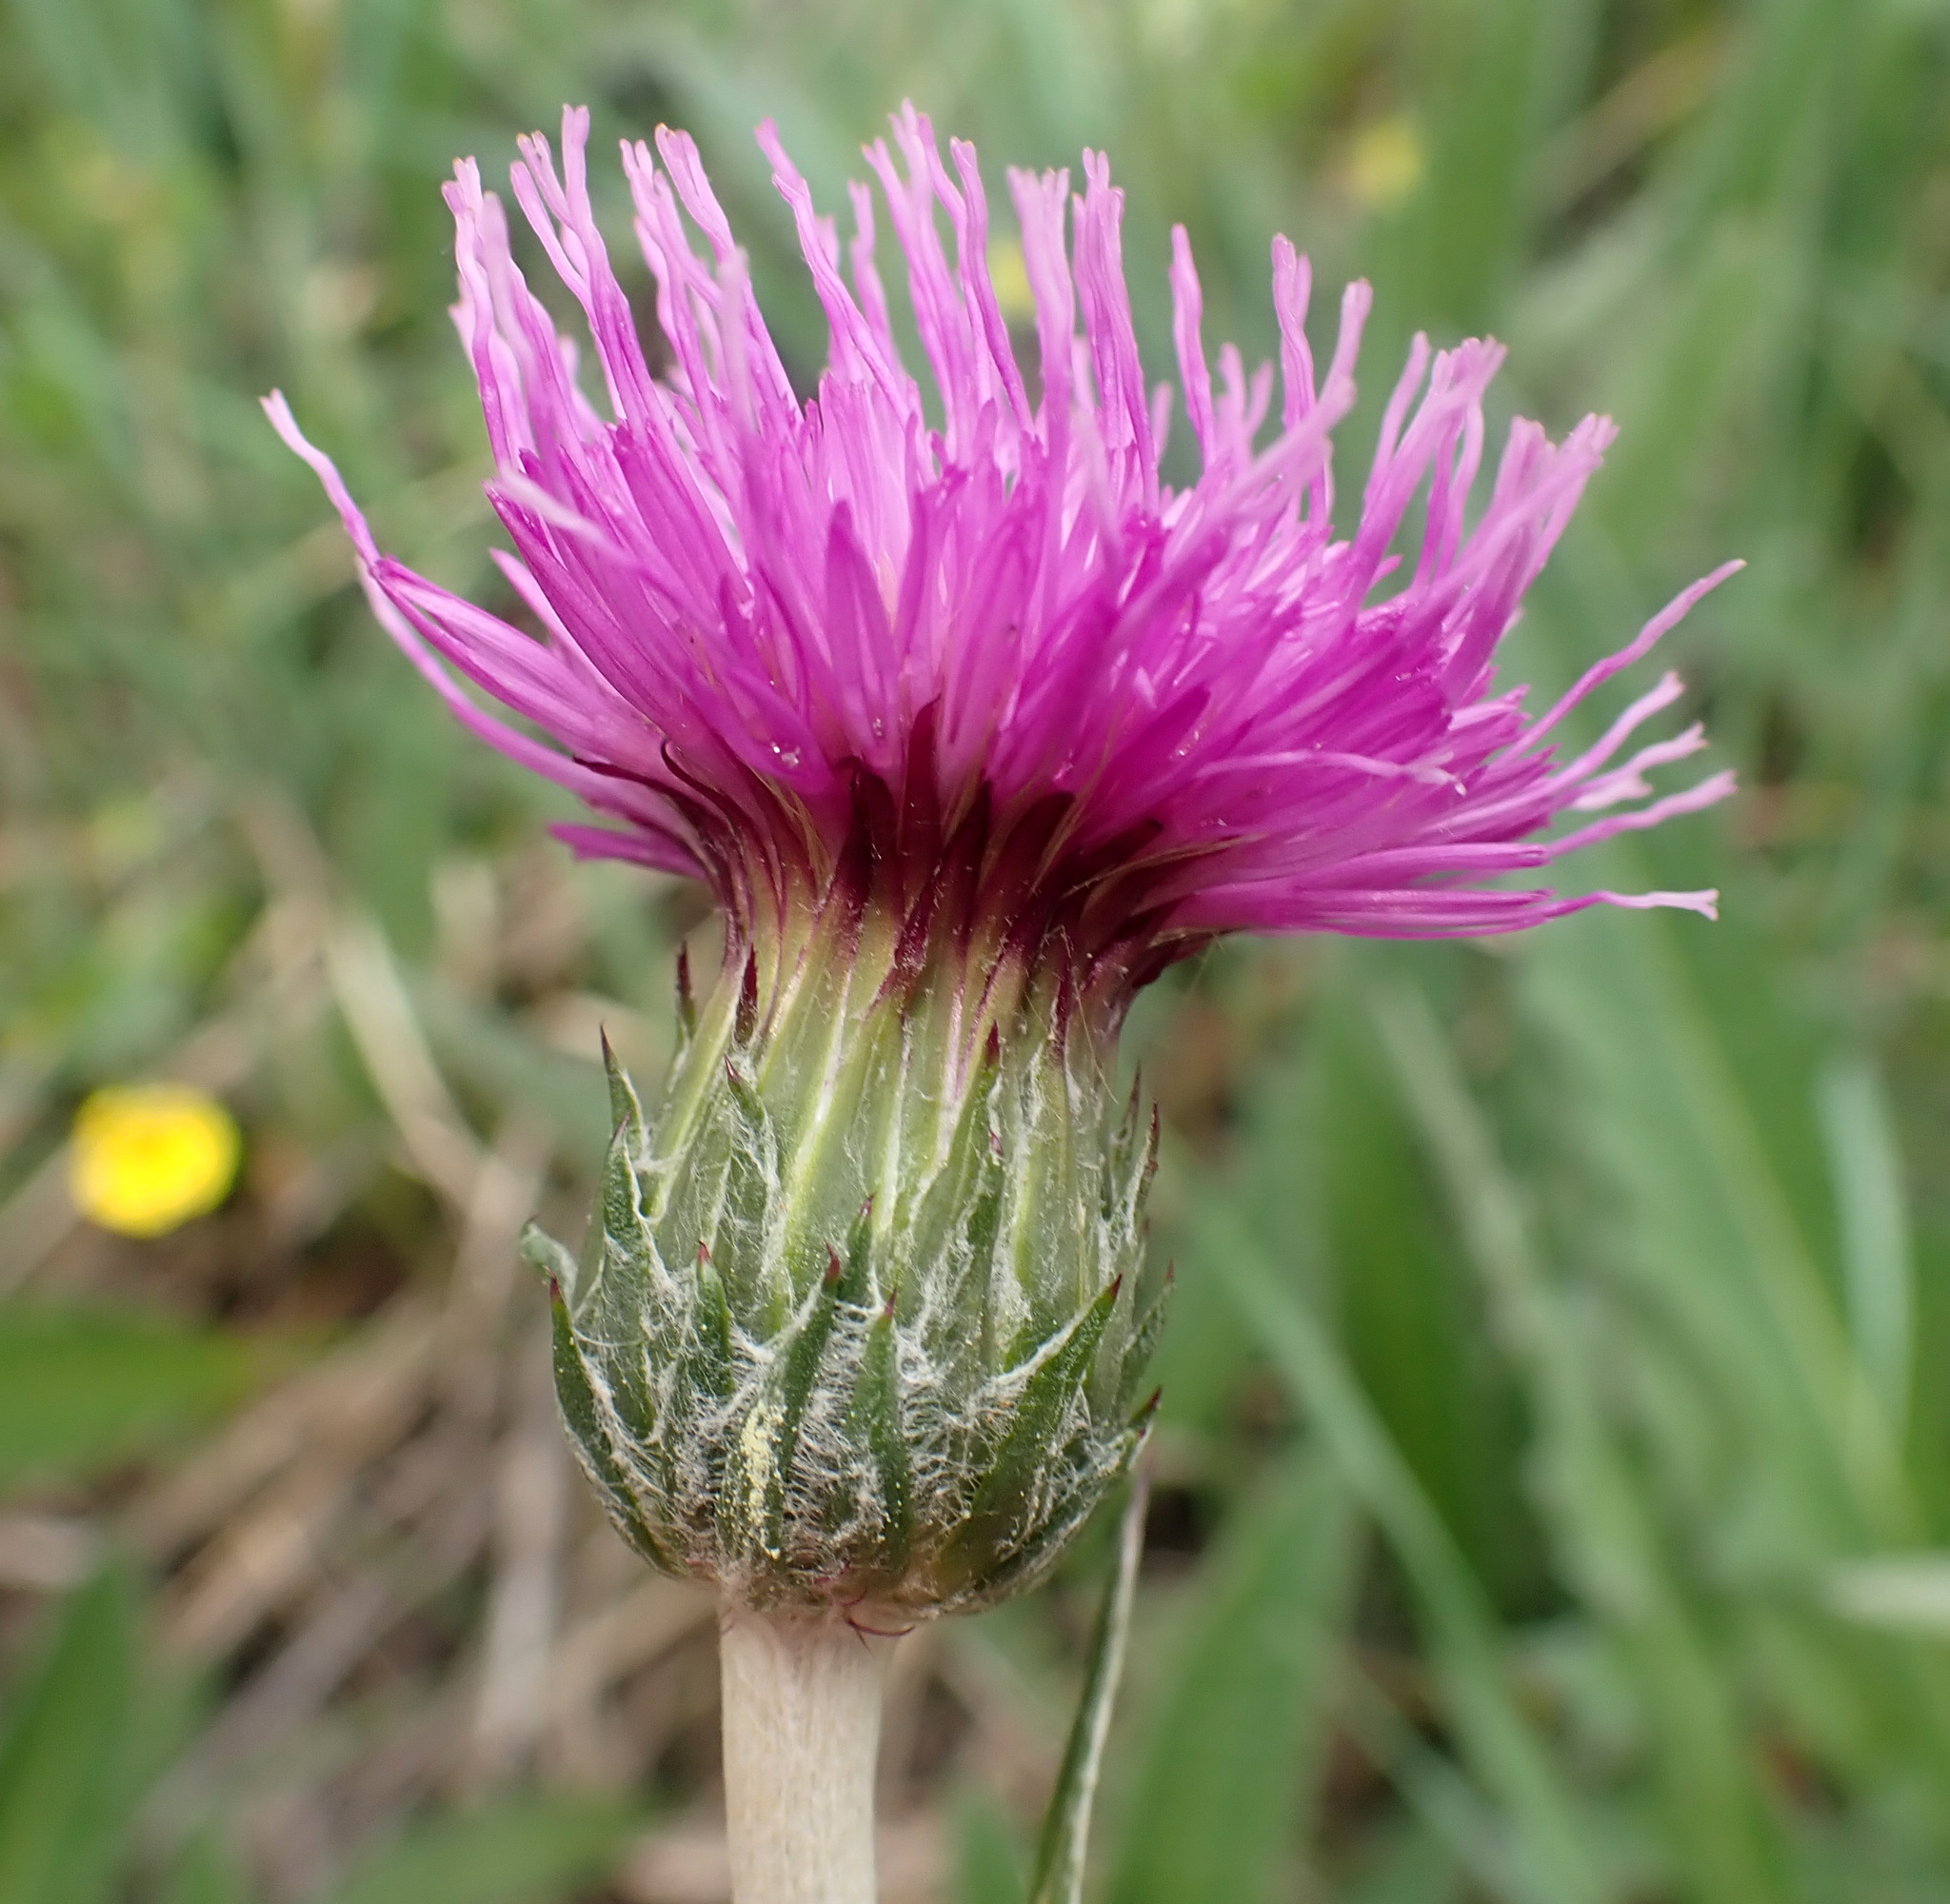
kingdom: Plantae
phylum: Tracheophyta
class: Magnoliopsida
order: Asterales
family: Asteraceae
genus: Cirsium
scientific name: Cirsium dissectum
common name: Meadow thistle
